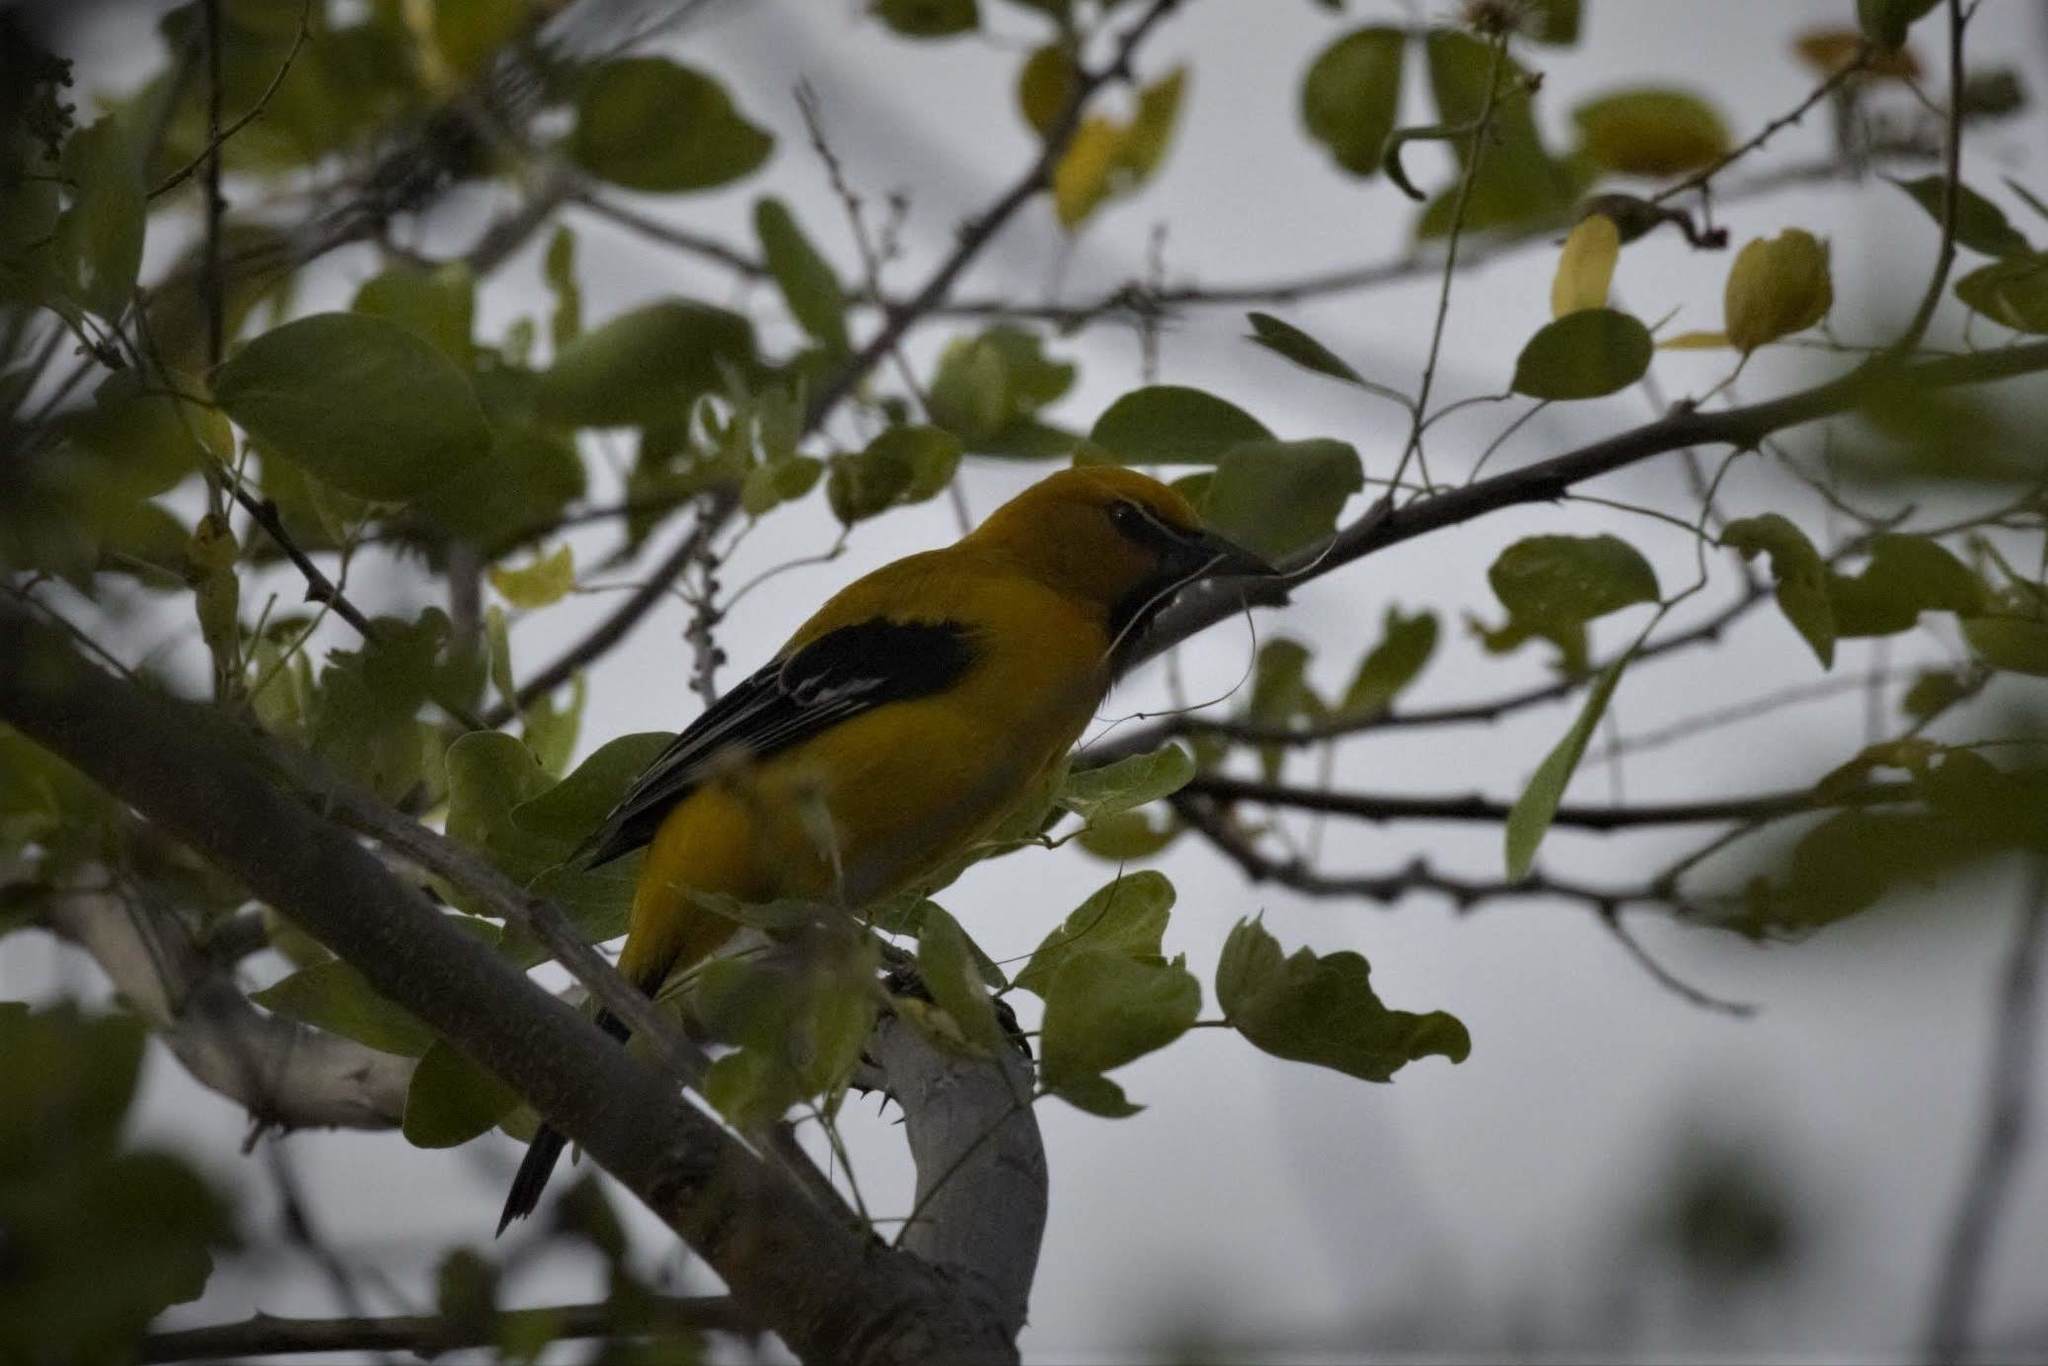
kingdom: Animalia
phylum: Chordata
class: Aves
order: Passeriformes
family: Icteridae
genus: Icterus
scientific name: Icterus nigrogularis
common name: Yellow oriole
